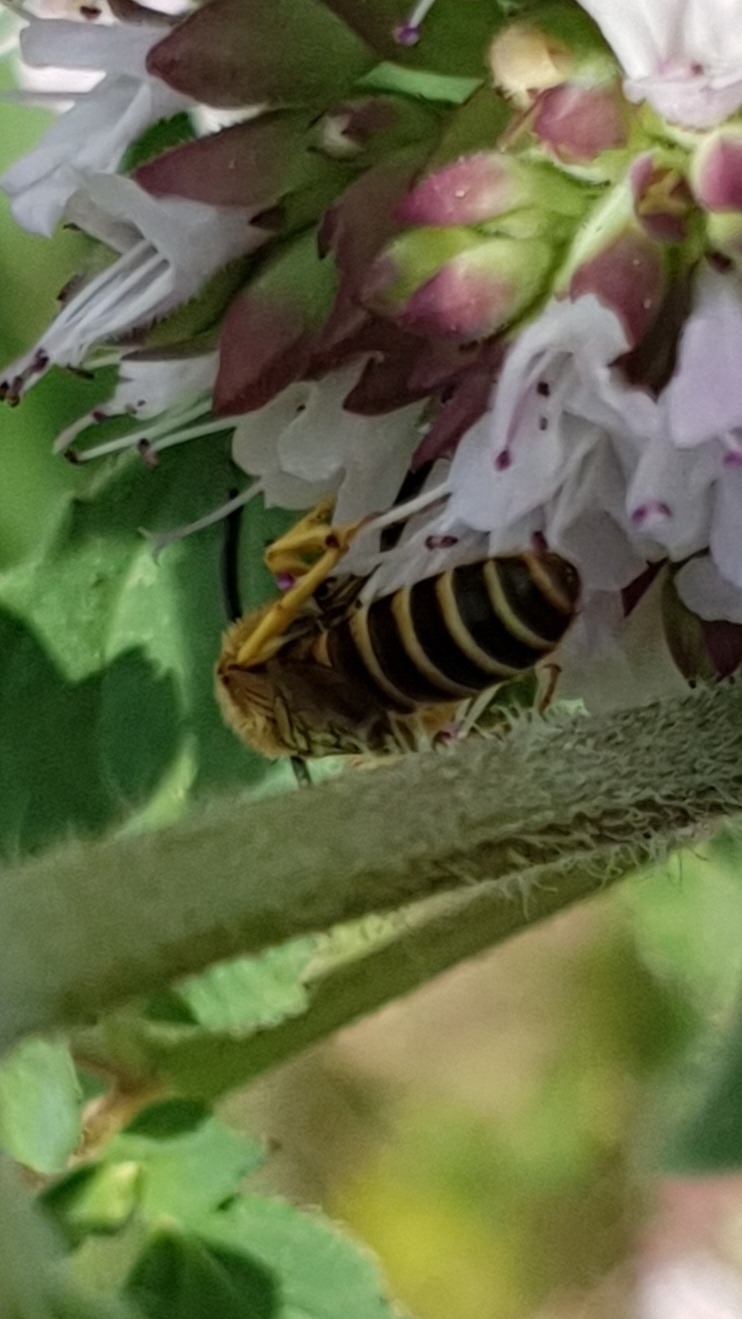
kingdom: Animalia
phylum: Arthropoda
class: Insecta
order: Hymenoptera
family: Halictidae
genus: Halictus
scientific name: Halictus scabiosae
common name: Great banded furrow bee
